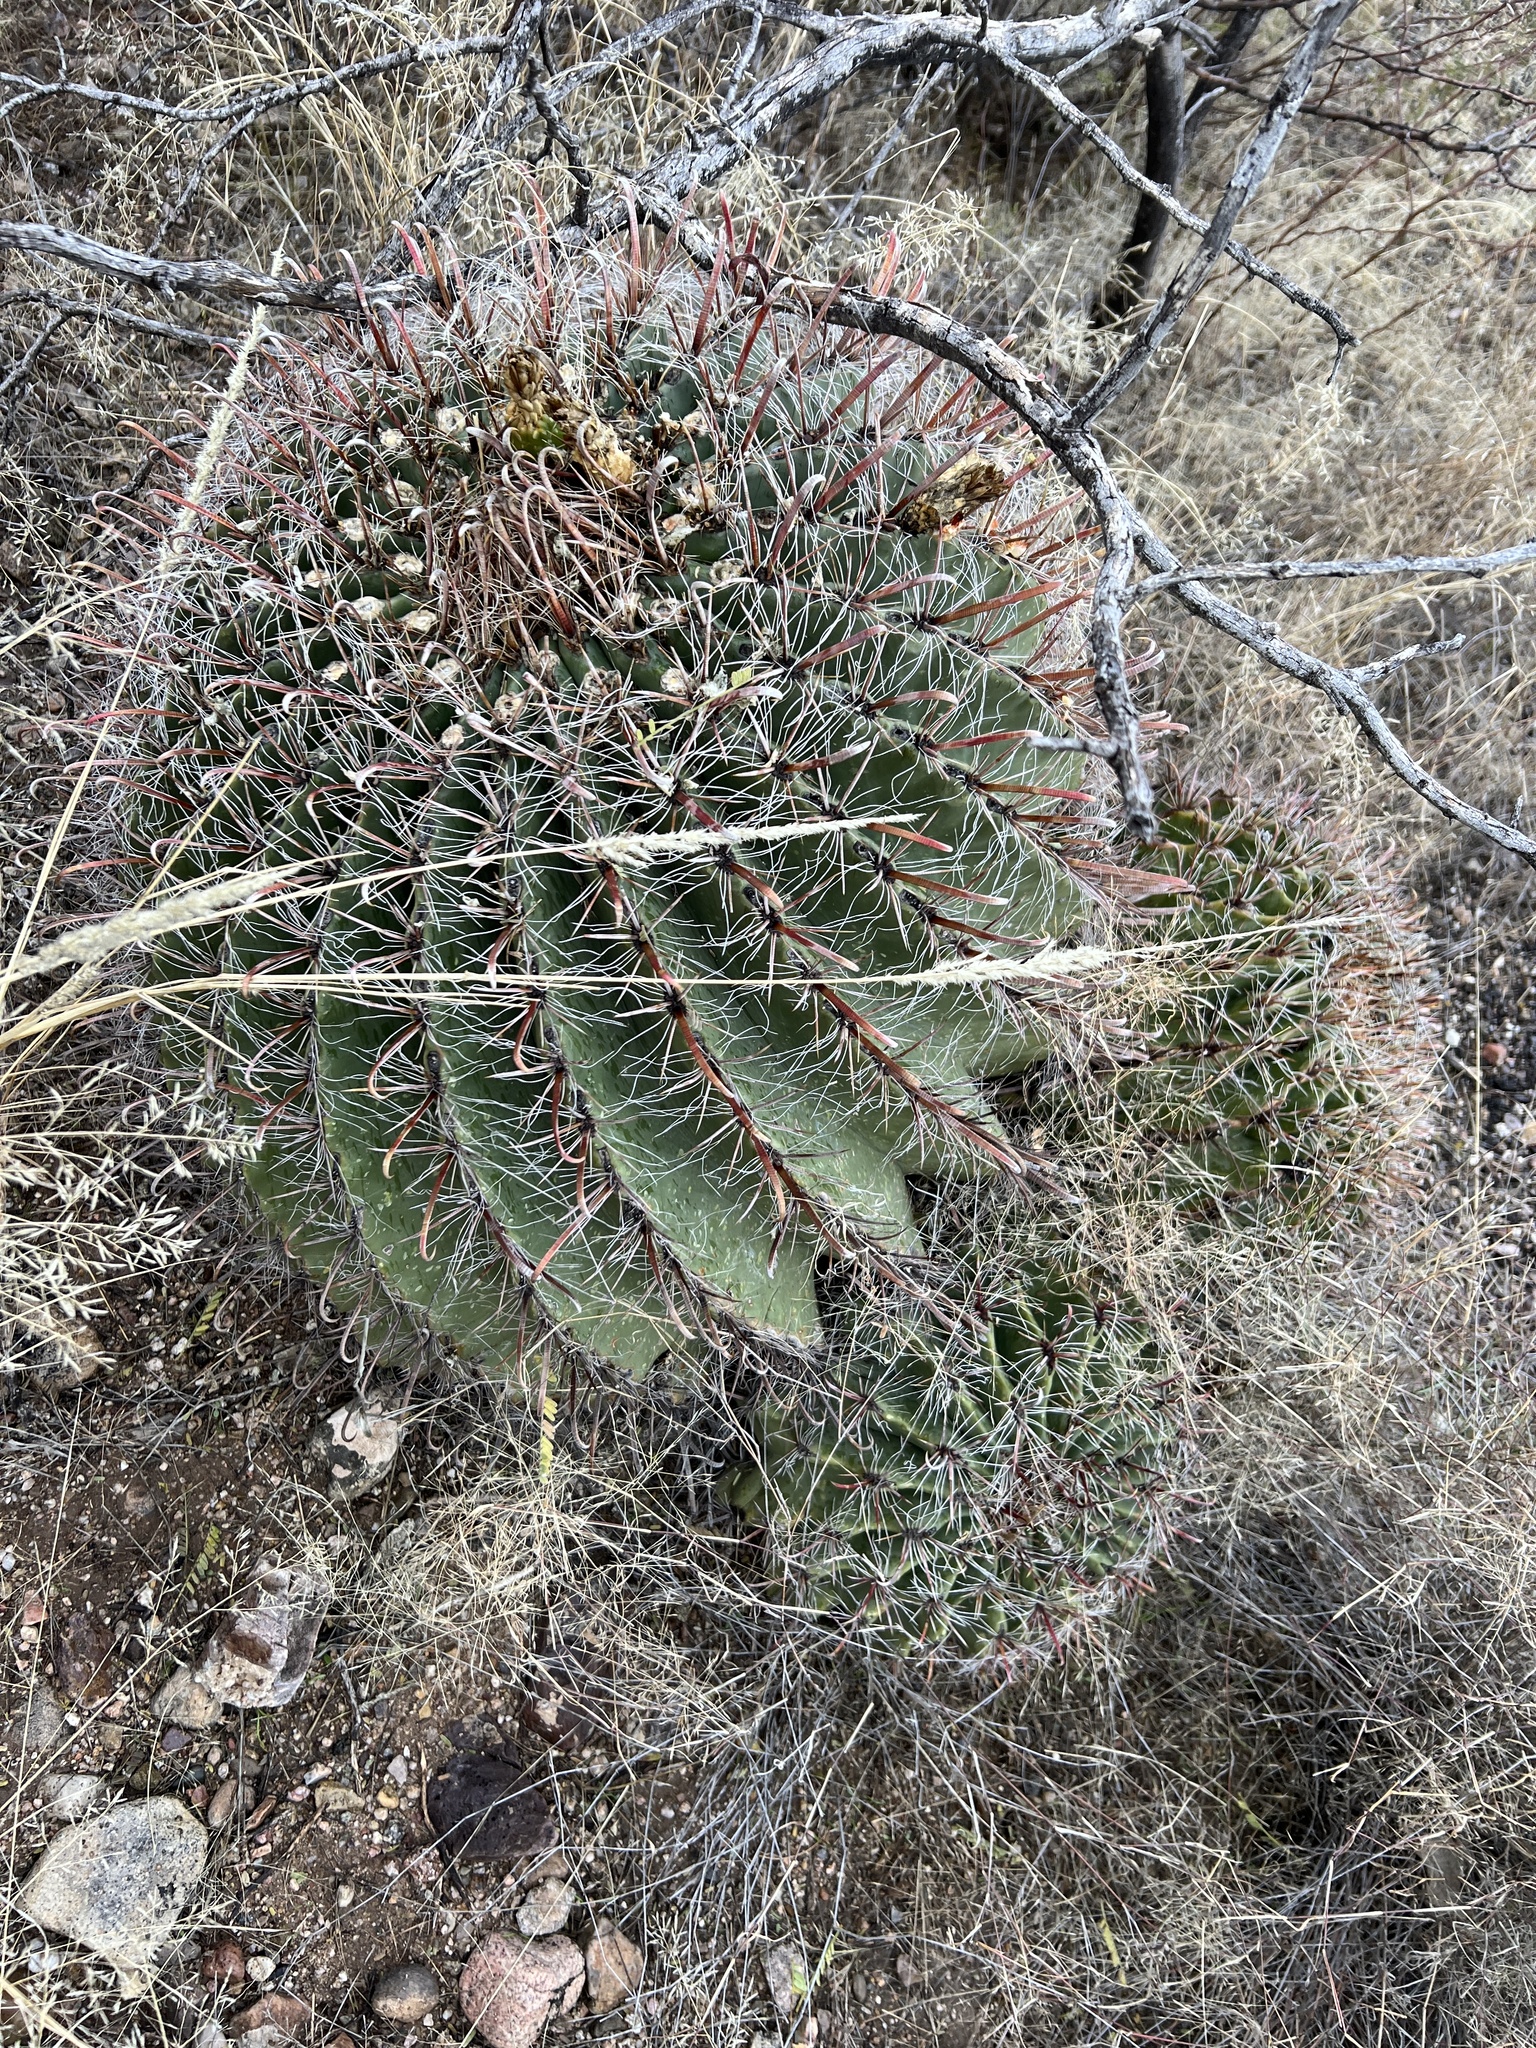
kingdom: Plantae
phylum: Tracheophyta
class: Magnoliopsida
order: Caryophyllales
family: Cactaceae
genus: Ferocactus
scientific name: Ferocactus wislizeni
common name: Candy barrel cactus
